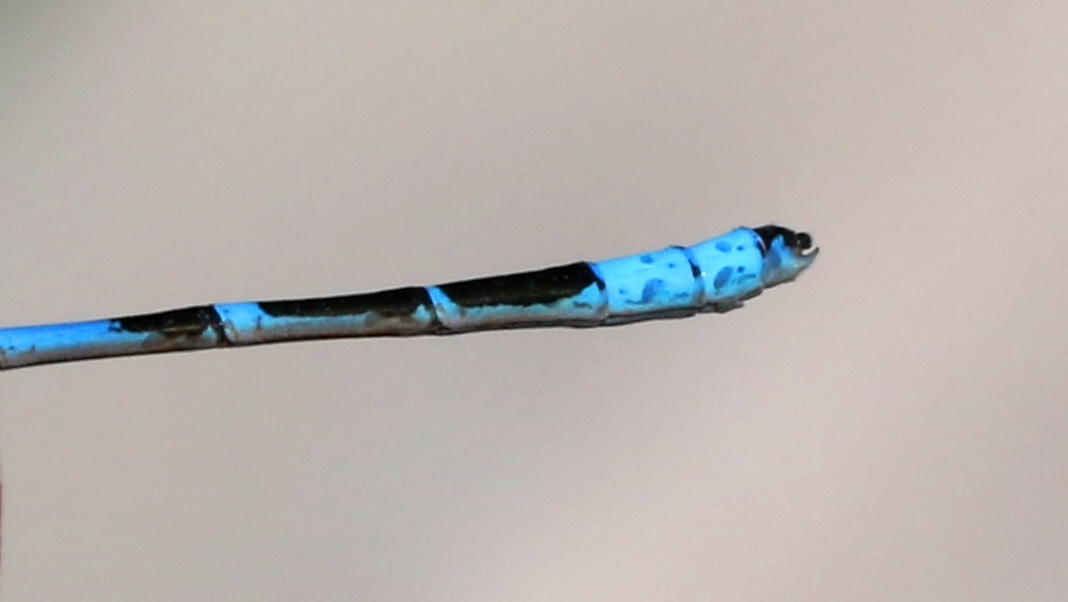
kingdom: Animalia
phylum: Arthropoda
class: Insecta
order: Odonata
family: Coenagrionidae
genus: Enallagma
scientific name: Enallagma boreale
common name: Boreal bluet
